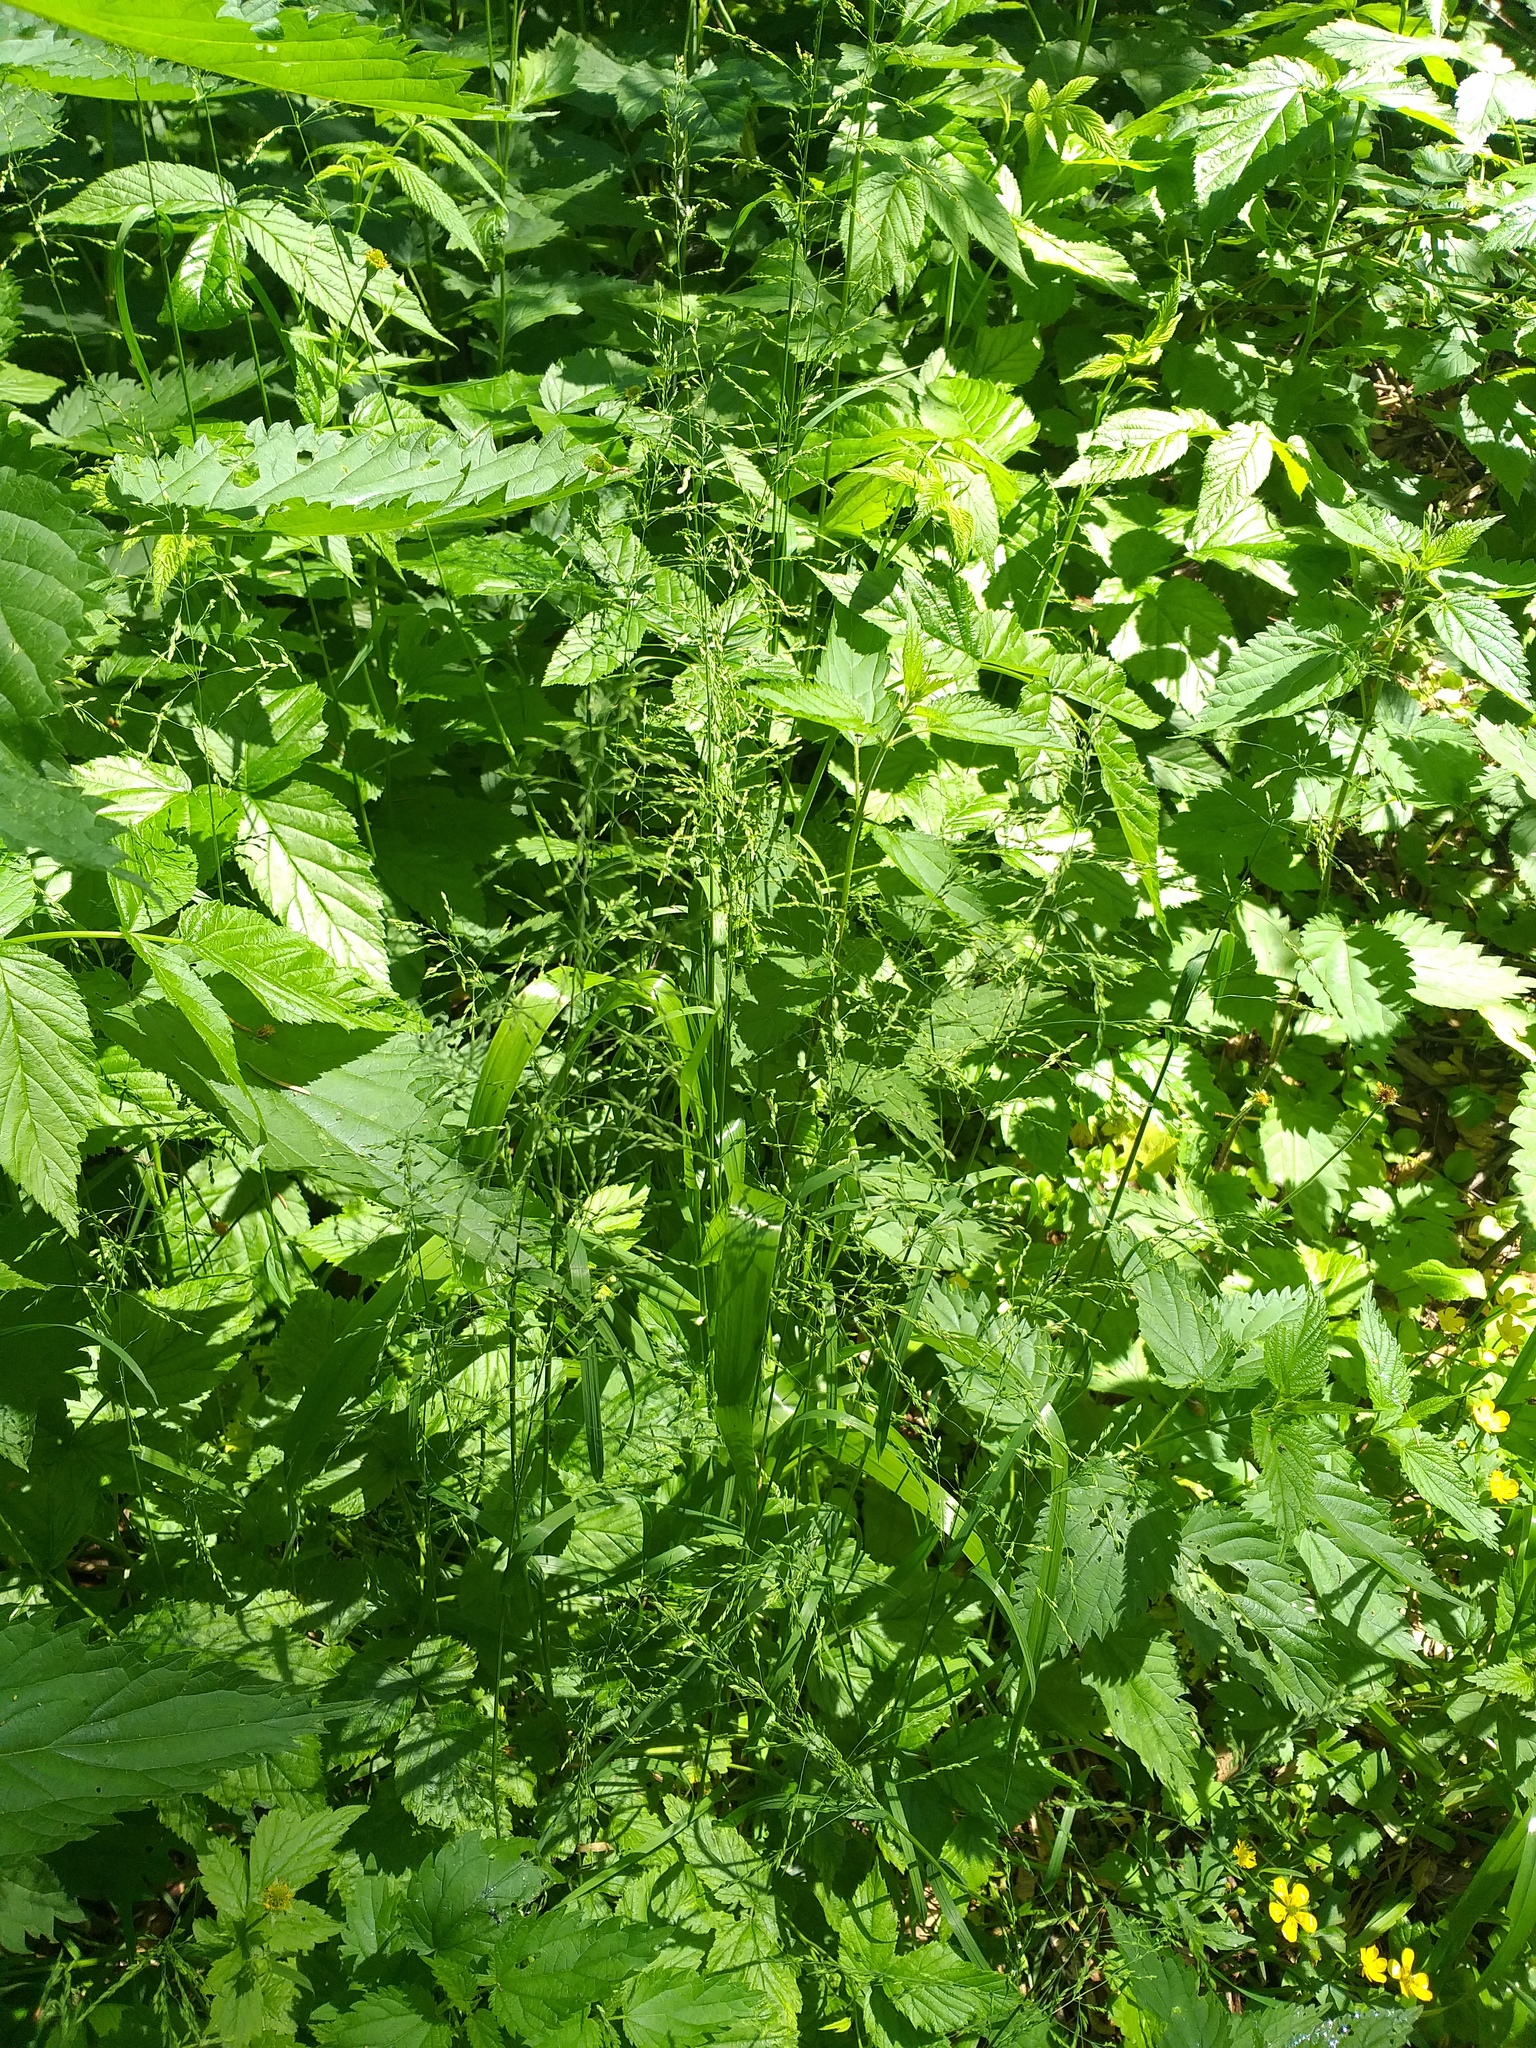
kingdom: Plantae
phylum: Tracheophyta
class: Liliopsida
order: Poales
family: Poaceae
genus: Poa
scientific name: Poa trivialis
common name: Rough bluegrass
